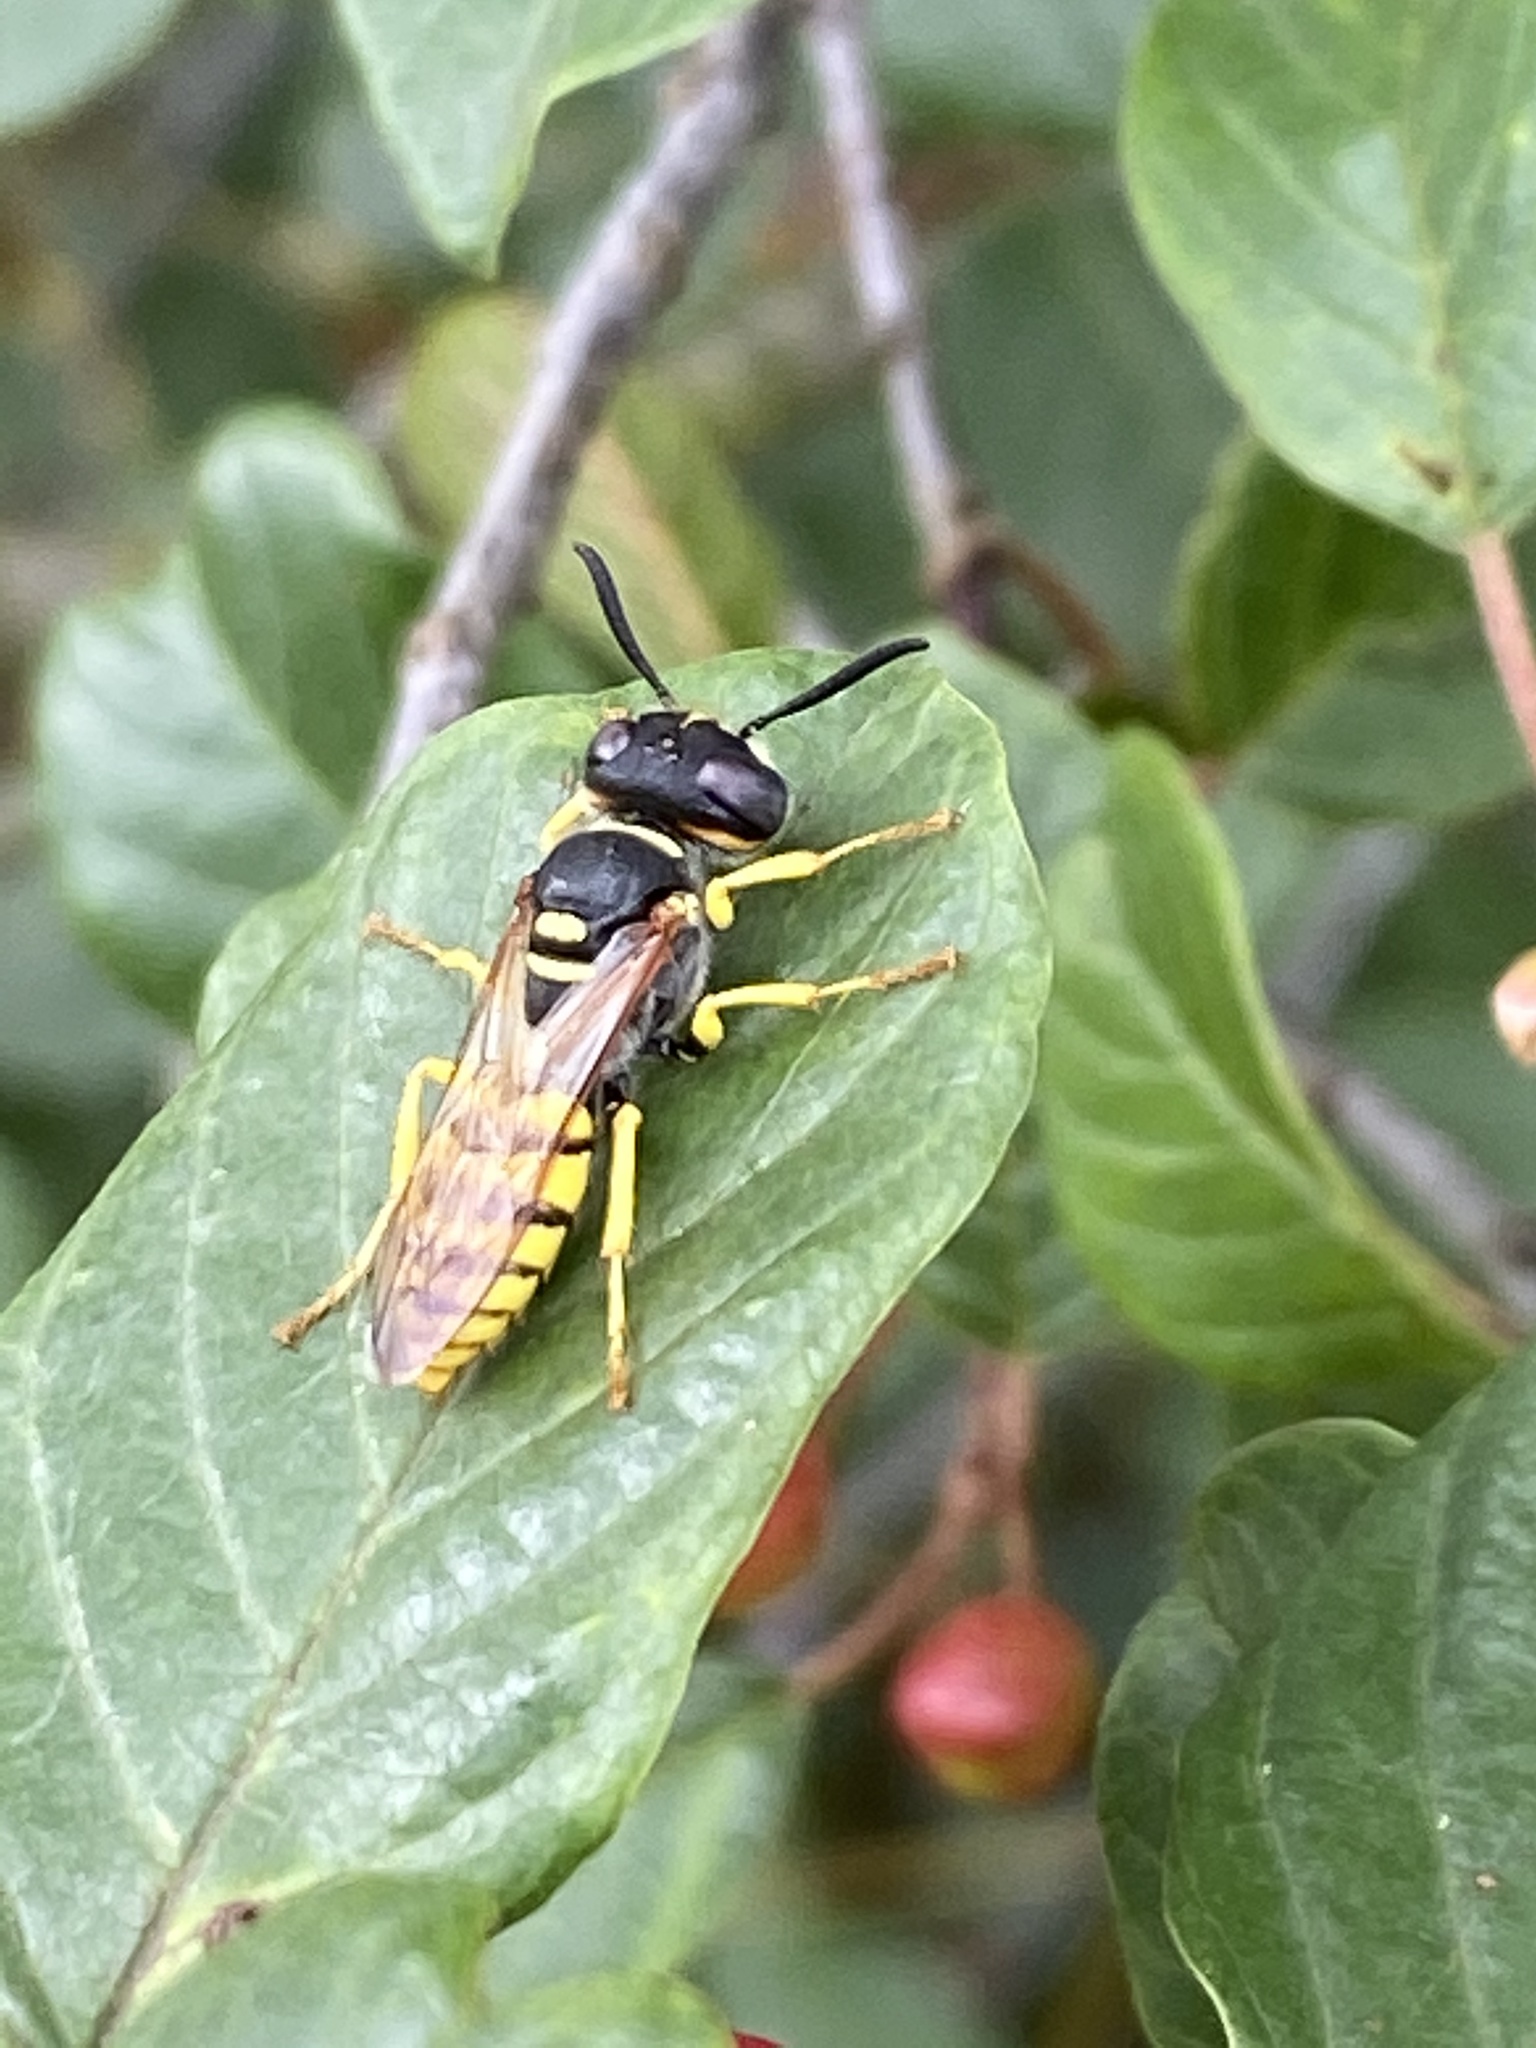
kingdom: Animalia
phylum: Arthropoda
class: Insecta
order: Hymenoptera
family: Crabronidae
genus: Philanthus
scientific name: Philanthus triangulum
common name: Bee wolf
